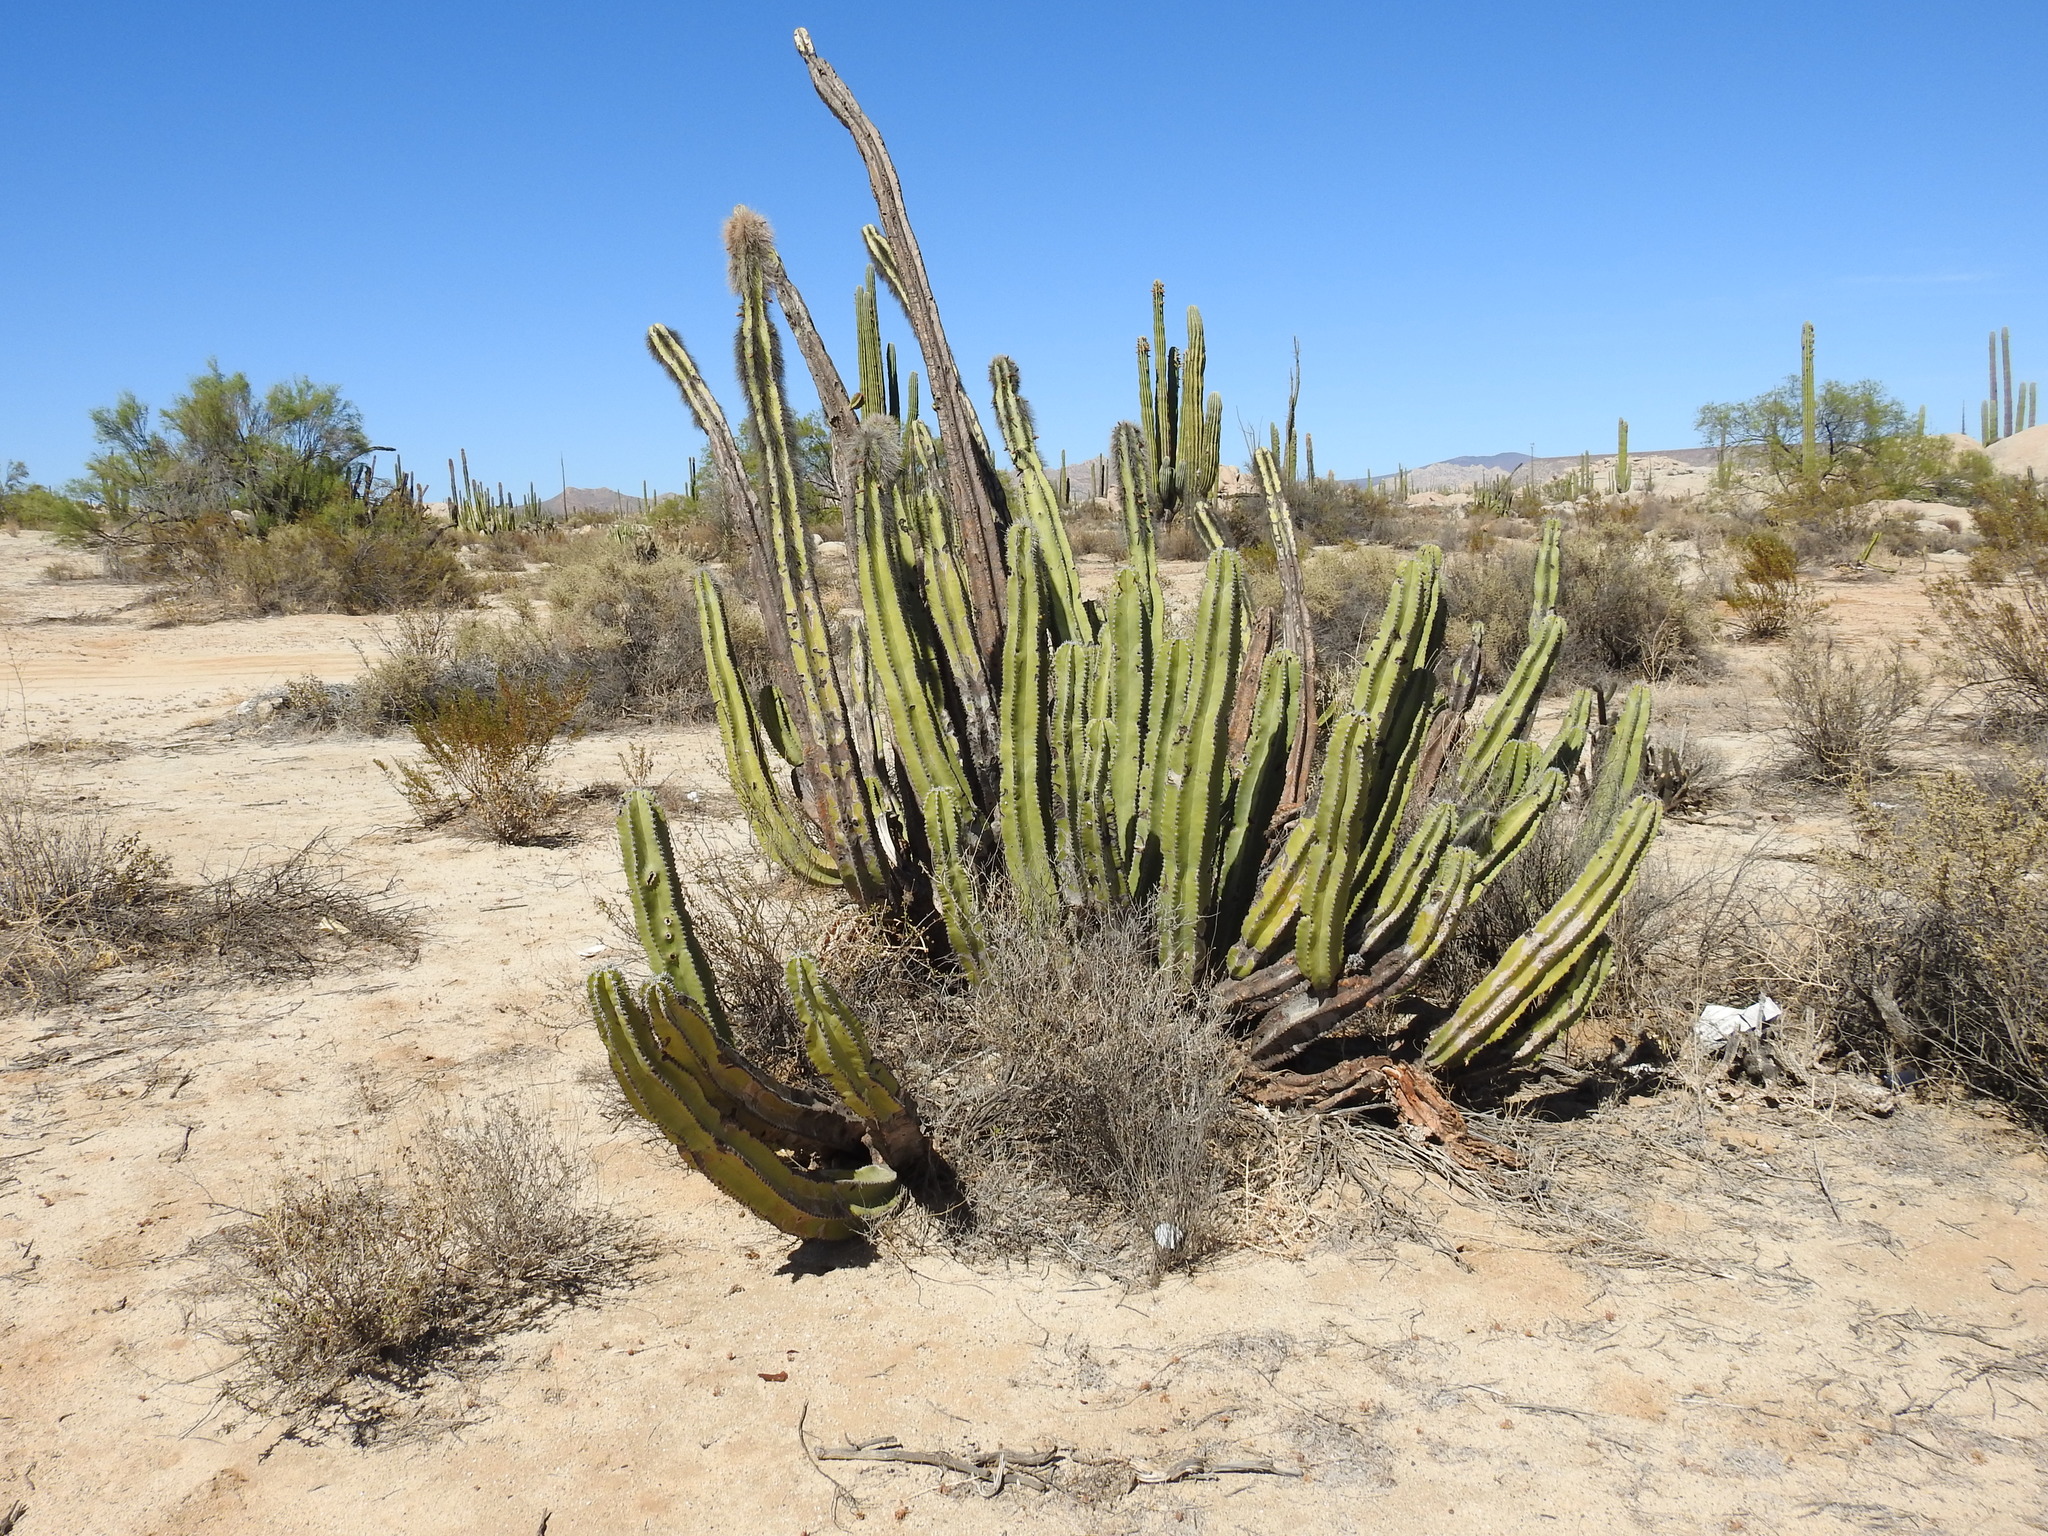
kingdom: Plantae
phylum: Tracheophyta
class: Magnoliopsida
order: Caryophyllales
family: Cactaceae
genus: Pachycereus
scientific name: Pachycereus schottii
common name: Senita cactus
